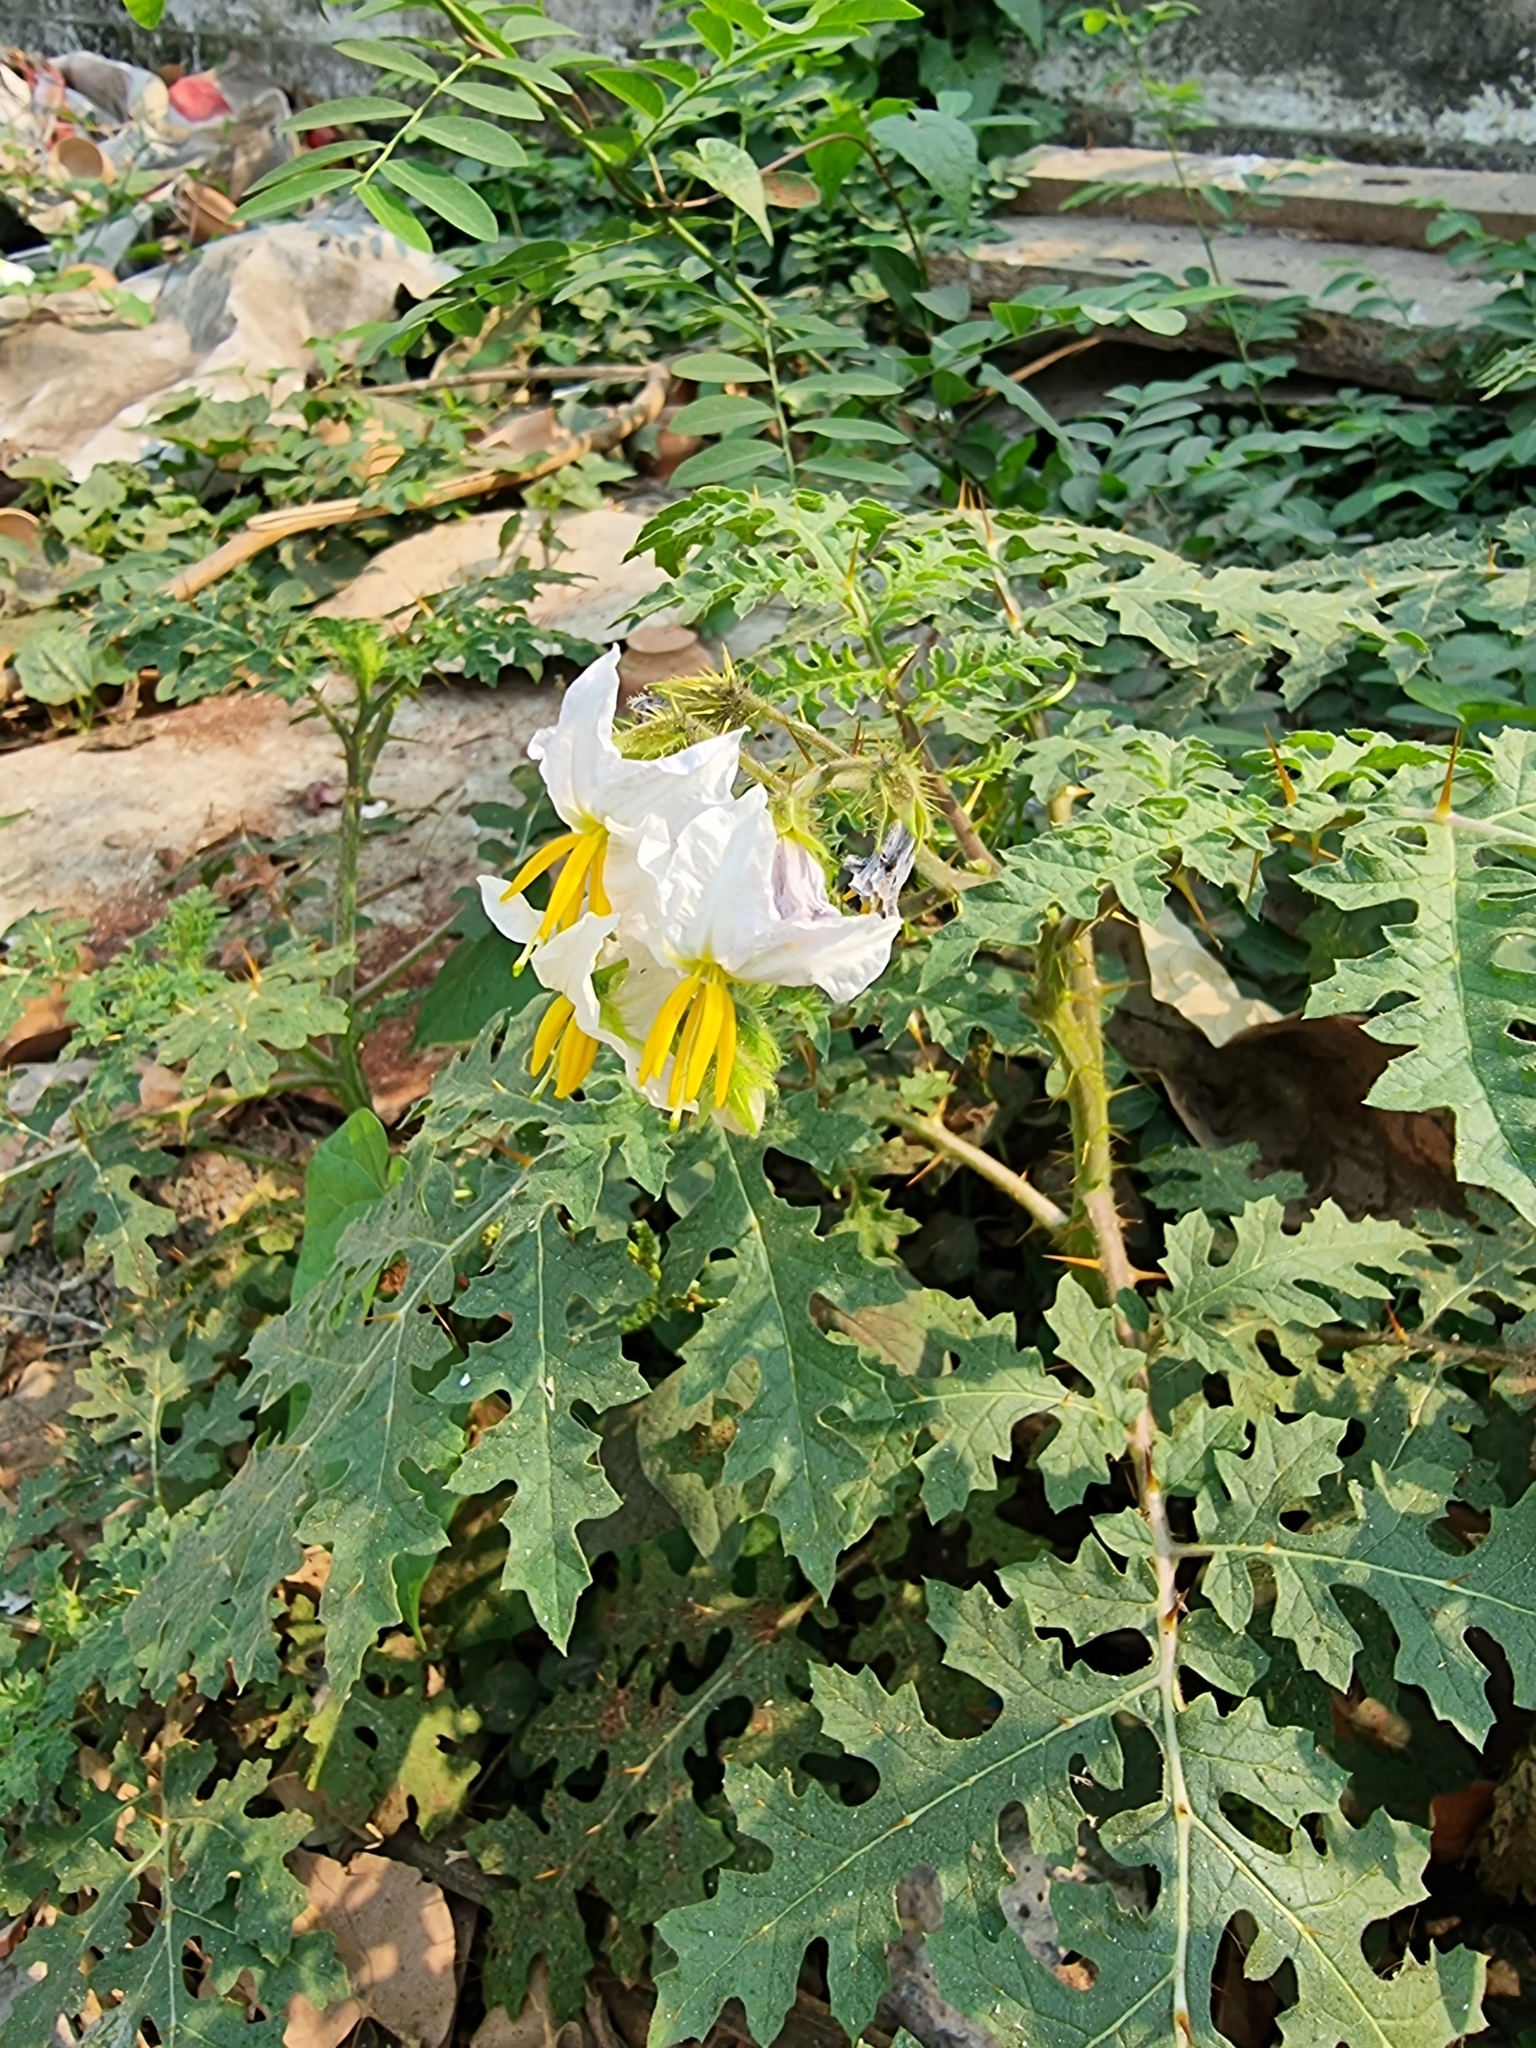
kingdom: Plantae
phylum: Tracheophyta
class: Magnoliopsida
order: Solanales
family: Solanaceae
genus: Solanum
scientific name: Solanum sisymbriifolium
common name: Red buffalo-bur
